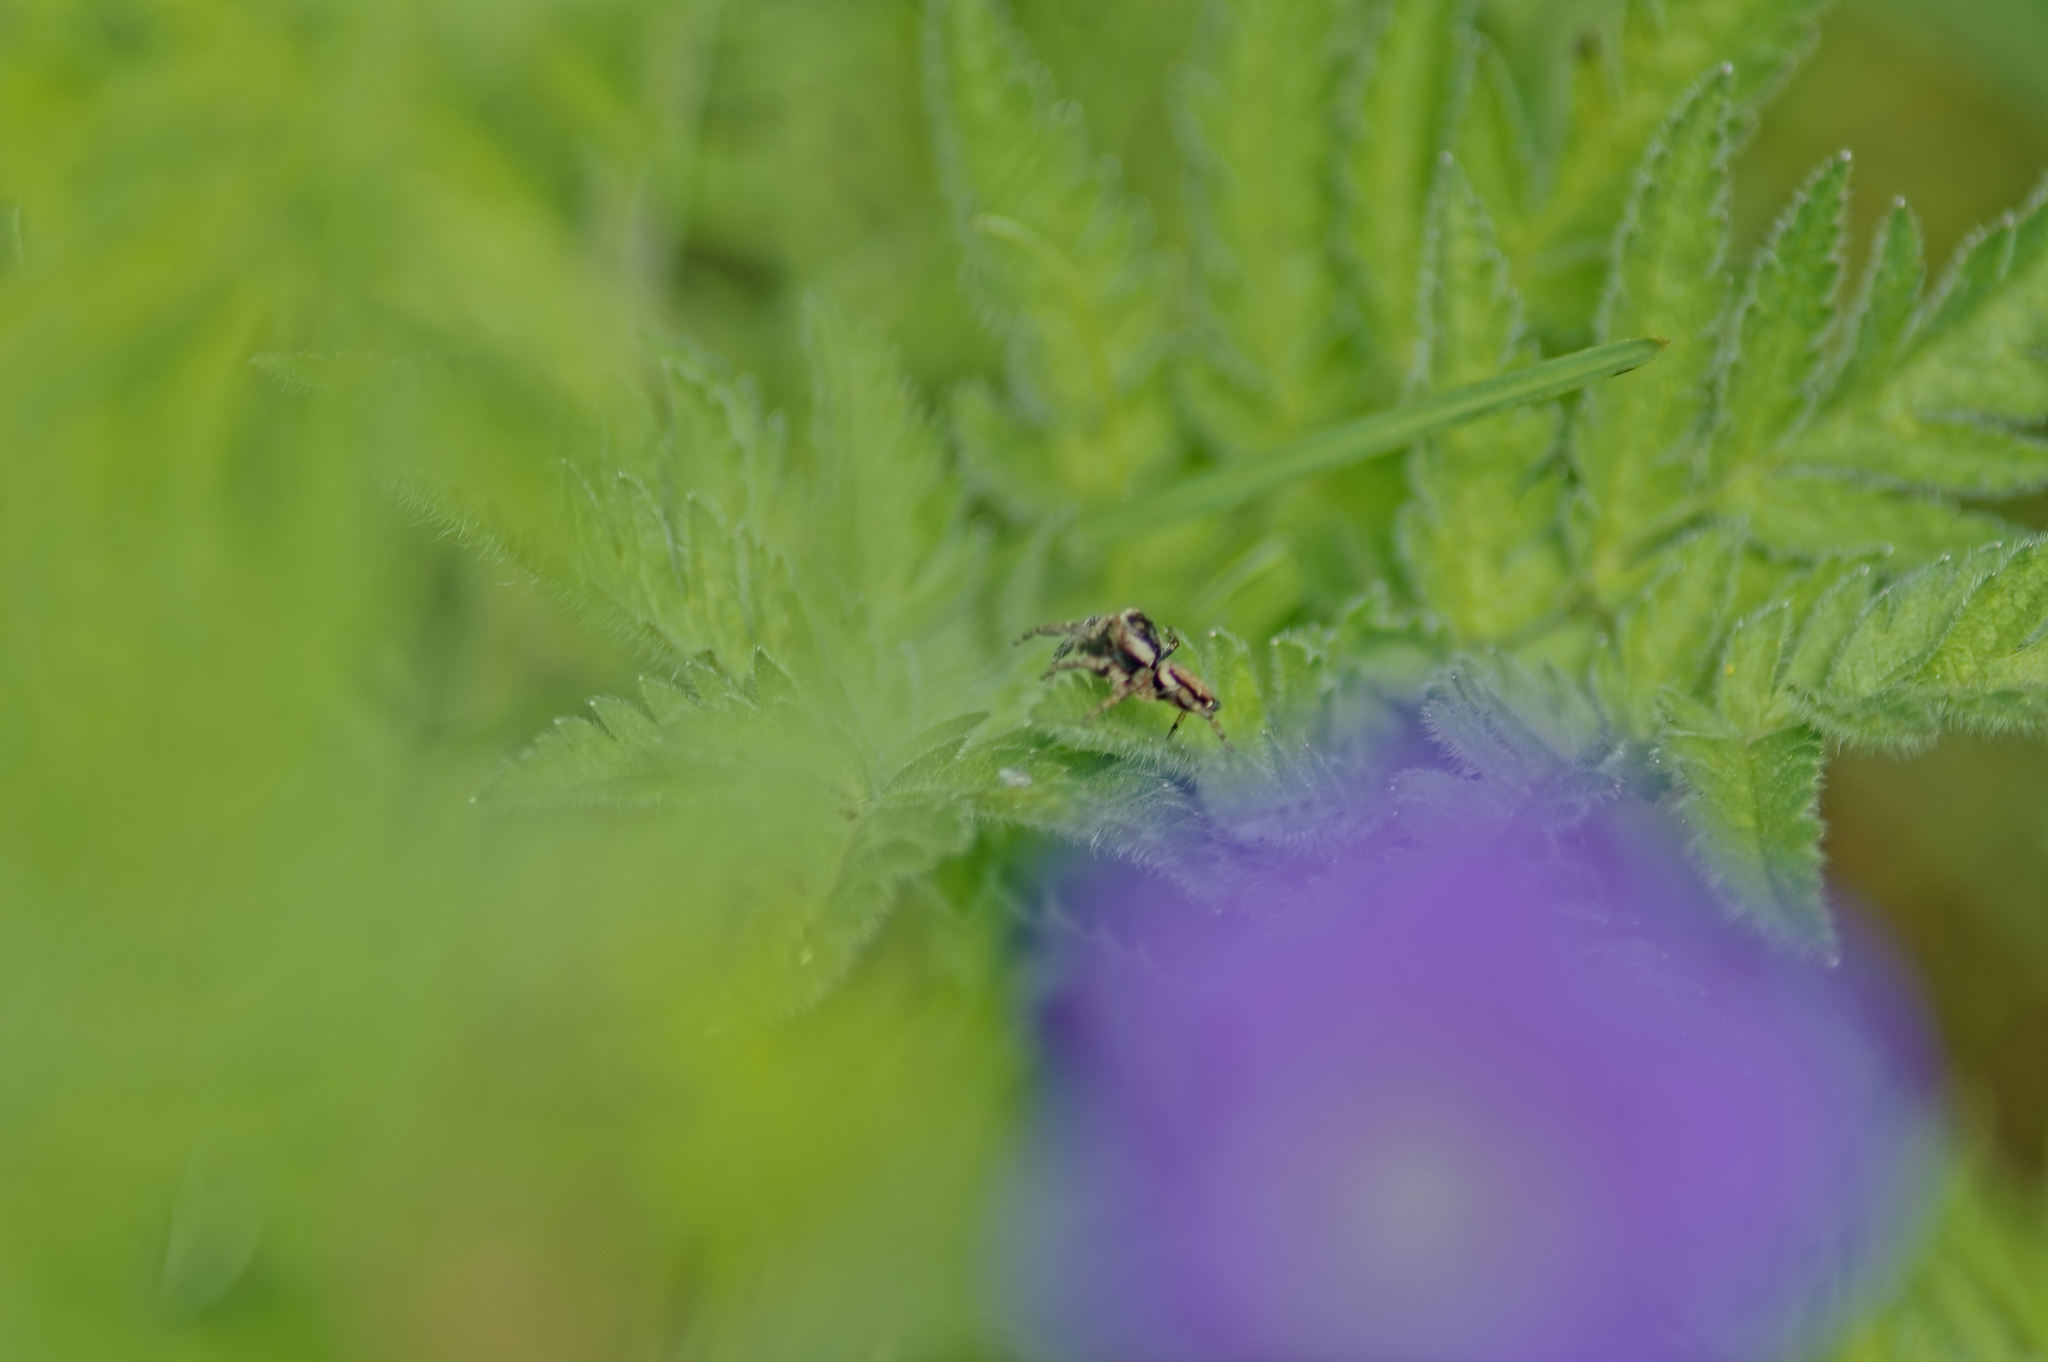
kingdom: Animalia
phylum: Arthropoda
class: Arachnida
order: Araneae
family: Salticidae
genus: Evarcha
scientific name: Evarcha falcata
